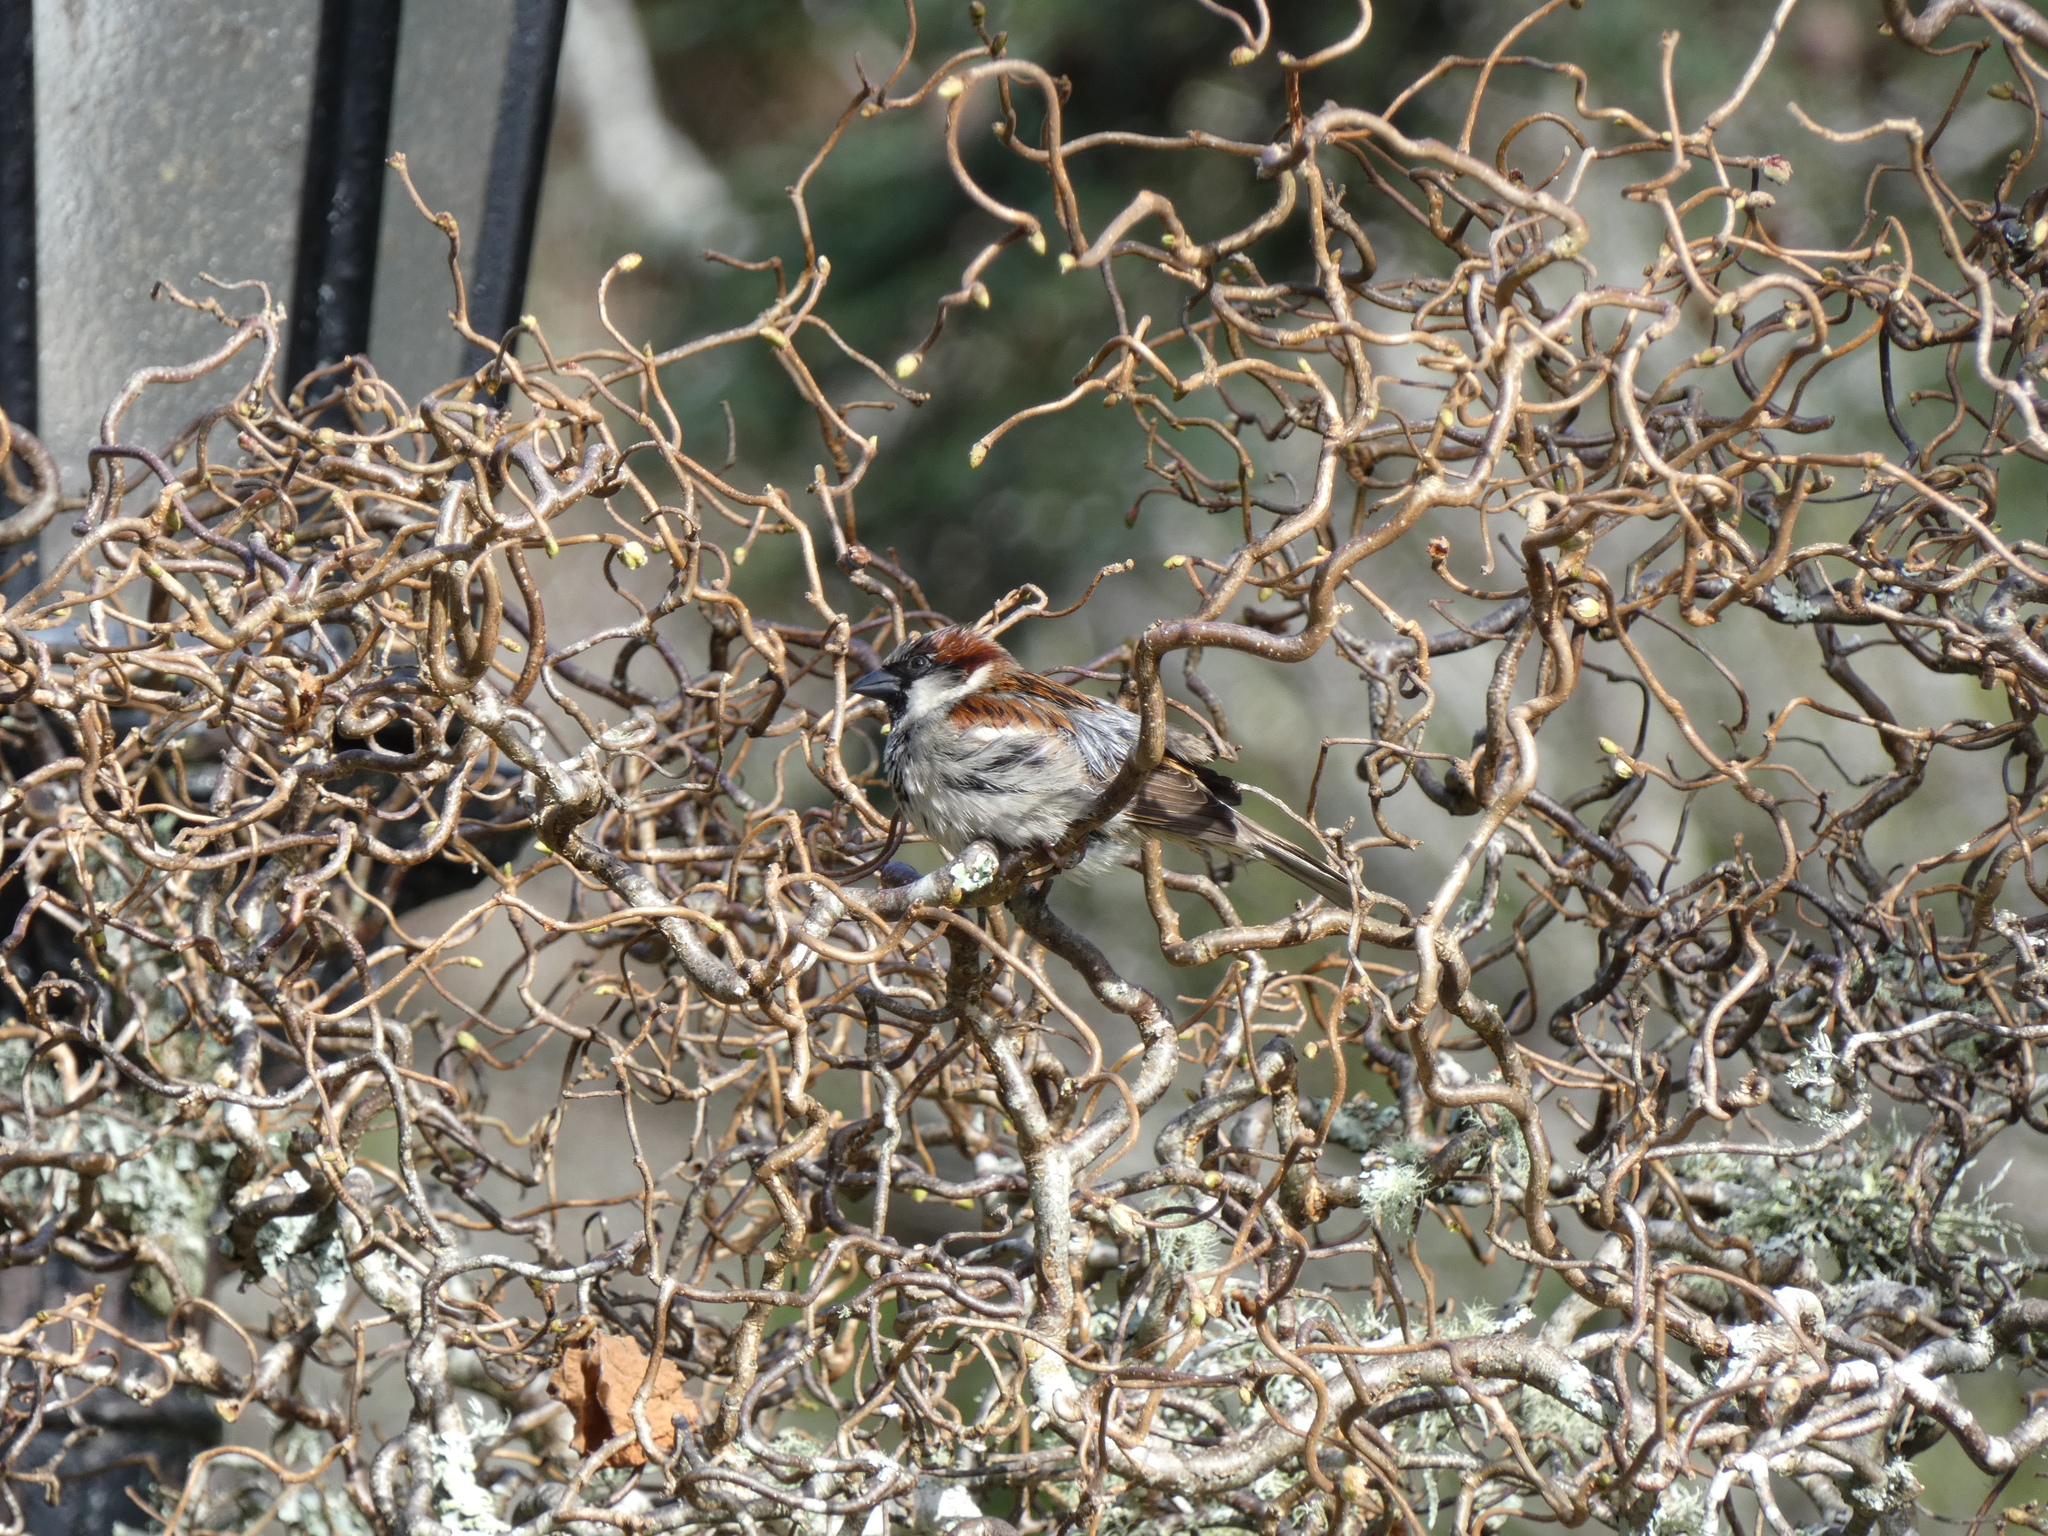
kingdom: Animalia
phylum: Chordata
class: Aves
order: Passeriformes
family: Passeridae
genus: Passer
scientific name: Passer domesticus
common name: House sparrow
